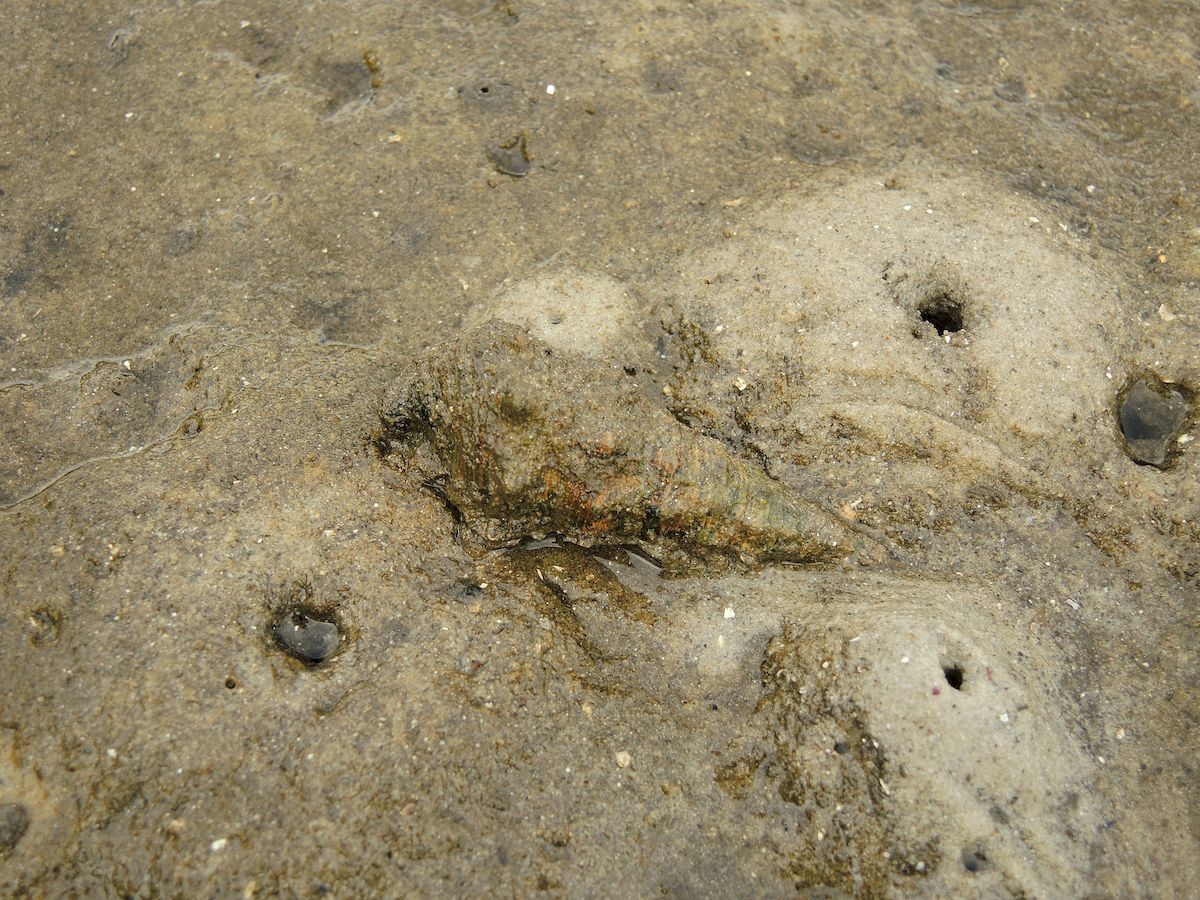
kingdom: Animalia
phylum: Mollusca
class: Gastropoda
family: Batillariidae
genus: Pyrazus
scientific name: Pyrazus ebeninus
